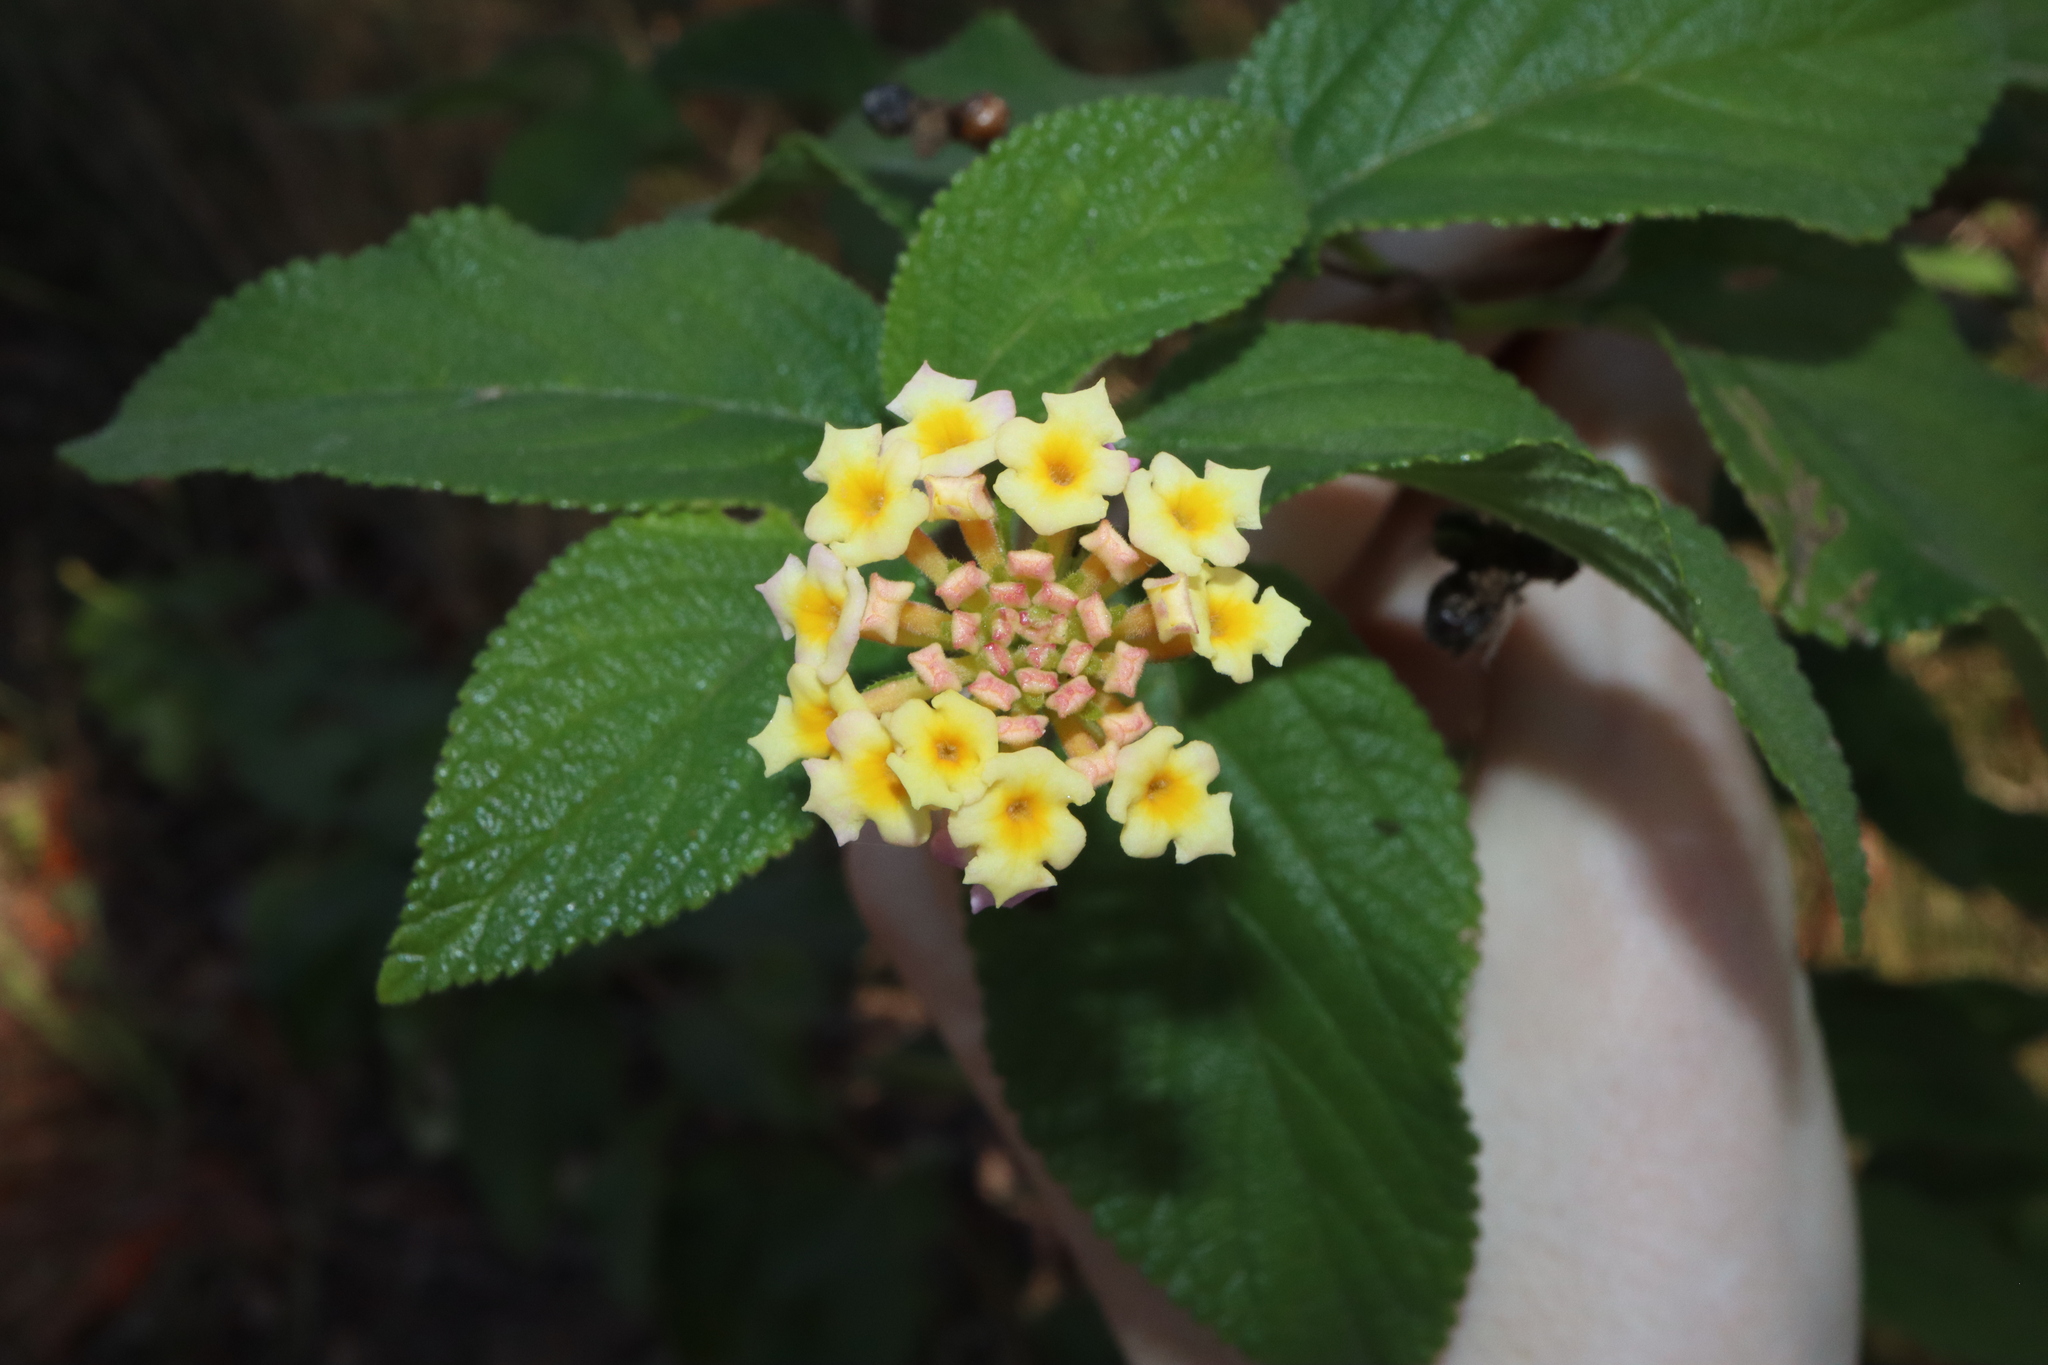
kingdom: Plantae
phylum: Tracheophyta
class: Magnoliopsida
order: Lamiales
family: Verbenaceae
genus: Lantana
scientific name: Lantana camara
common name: Lantana
